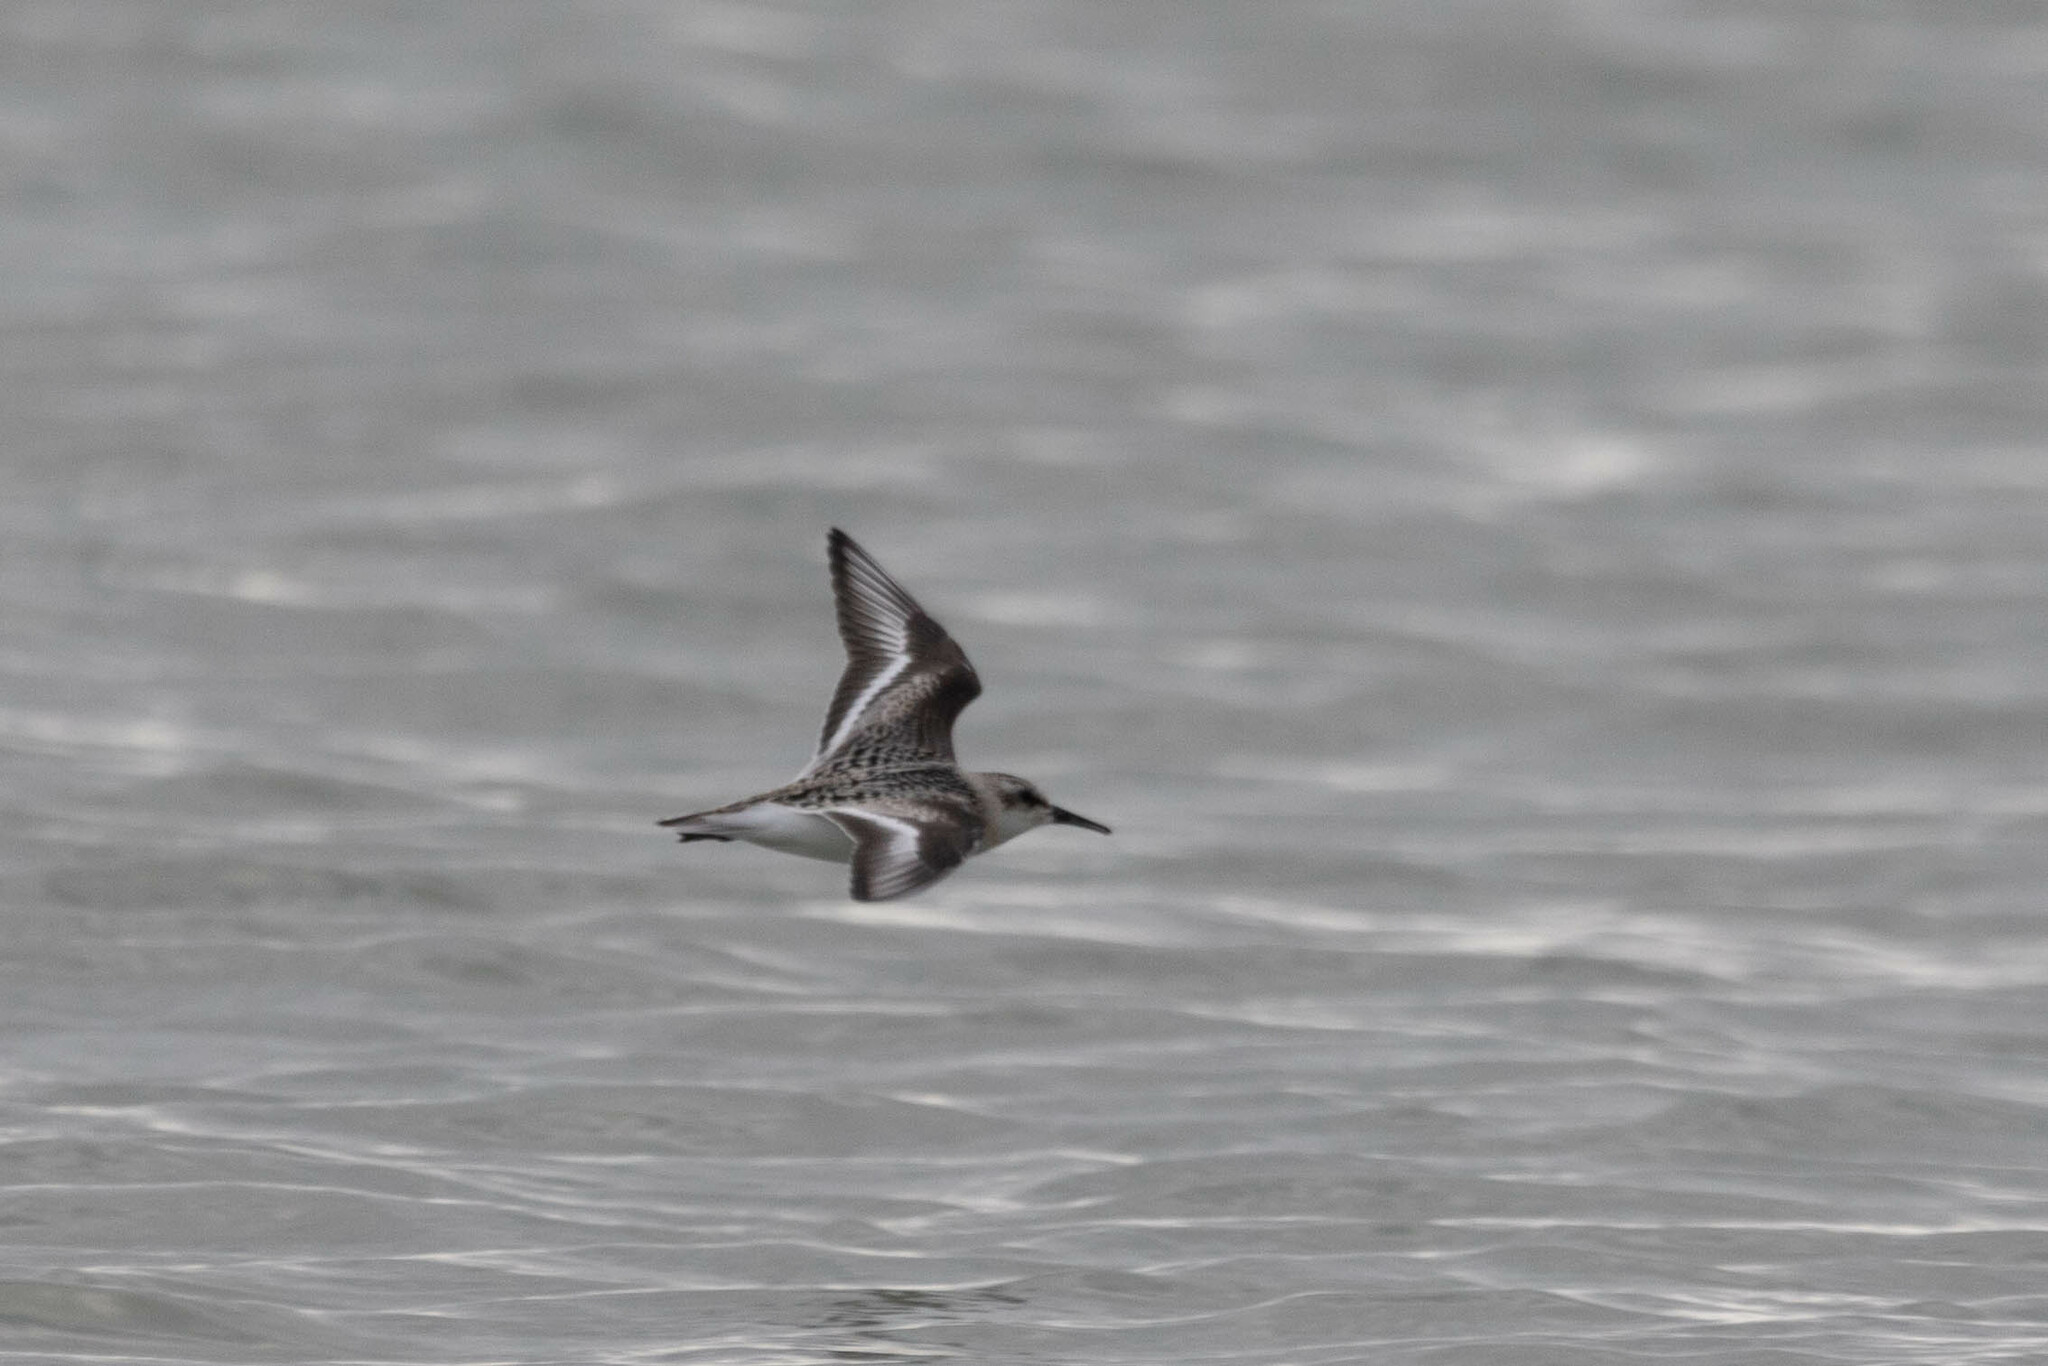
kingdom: Animalia
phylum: Chordata
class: Aves
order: Charadriiformes
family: Scolopacidae
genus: Calidris
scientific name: Calidris alba
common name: Sanderling
